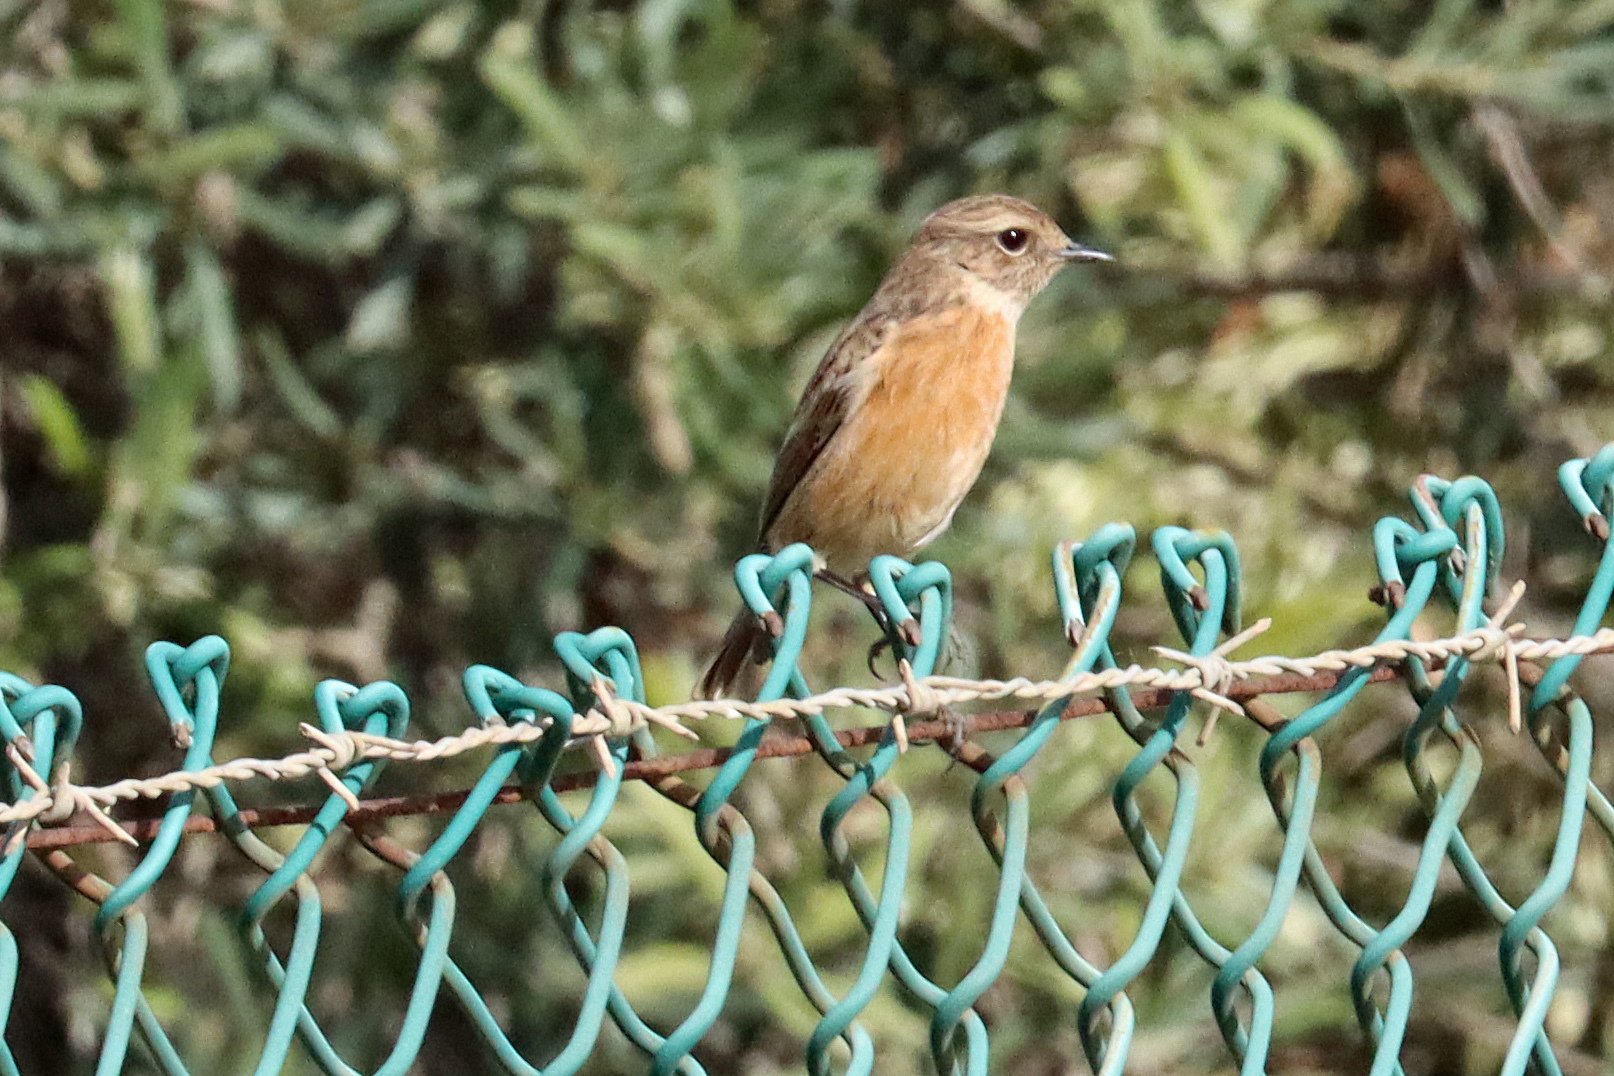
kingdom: Animalia
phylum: Chordata
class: Aves
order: Passeriformes
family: Muscicapidae
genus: Saxicola
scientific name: Saxicola rubicola
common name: European stonechat
